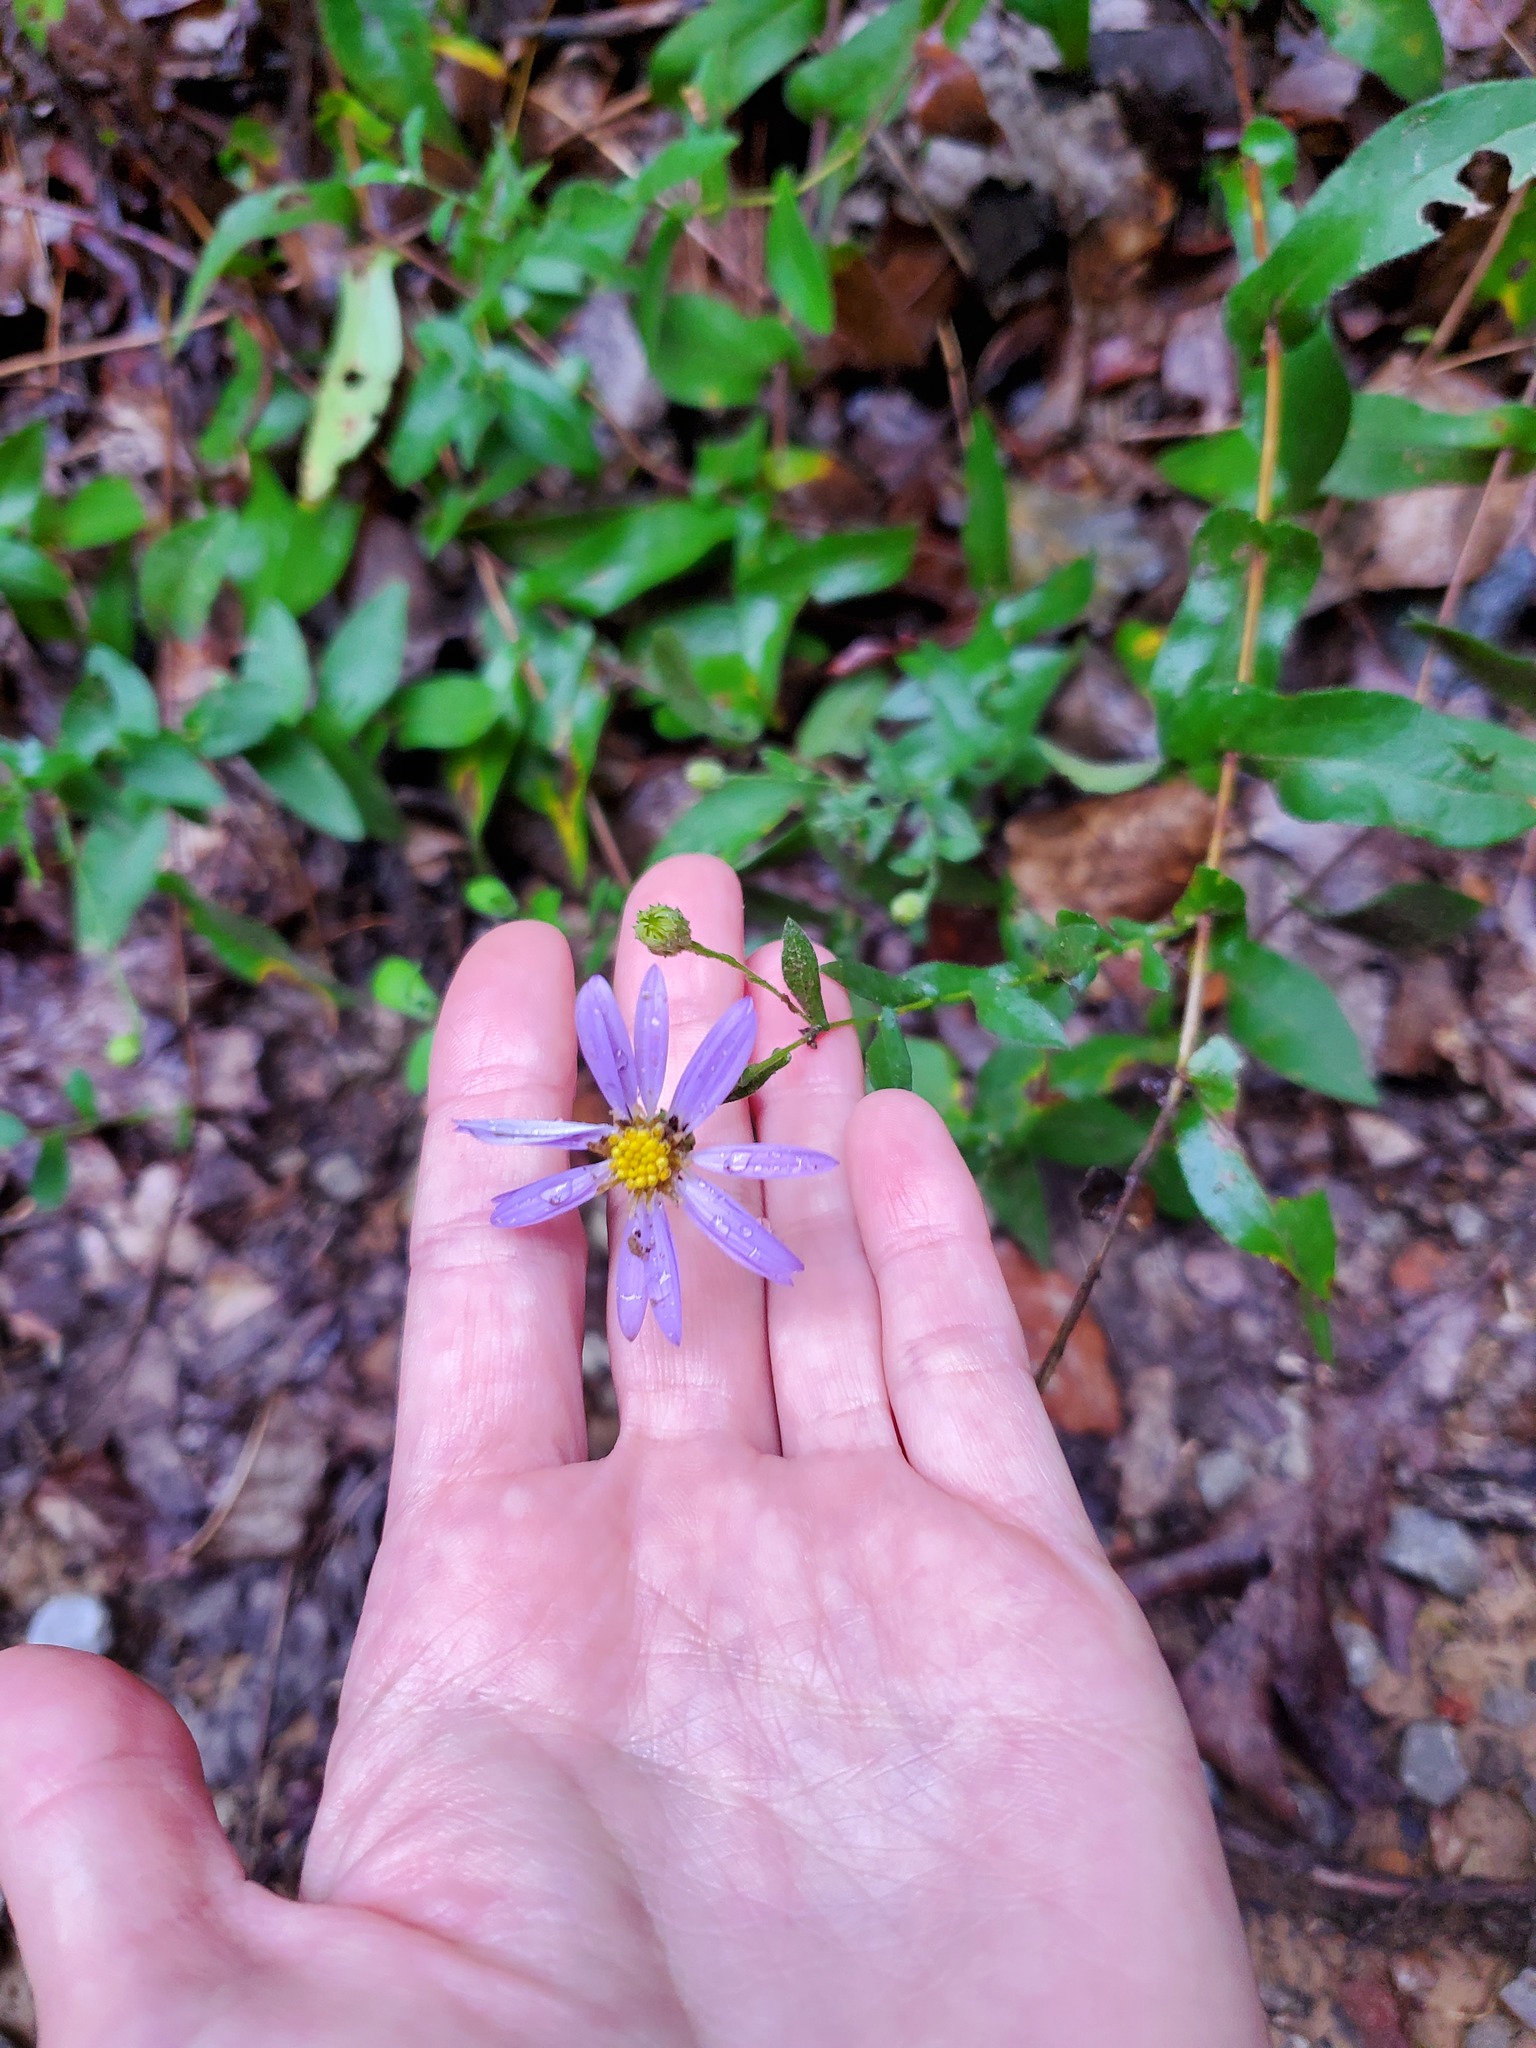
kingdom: Plantae
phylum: Tracheophyta
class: Magnoliopsida
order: Asterales
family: Asteraceae
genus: Symphyotrichum
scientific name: Symphyotrichum patens
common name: Late purple aster
